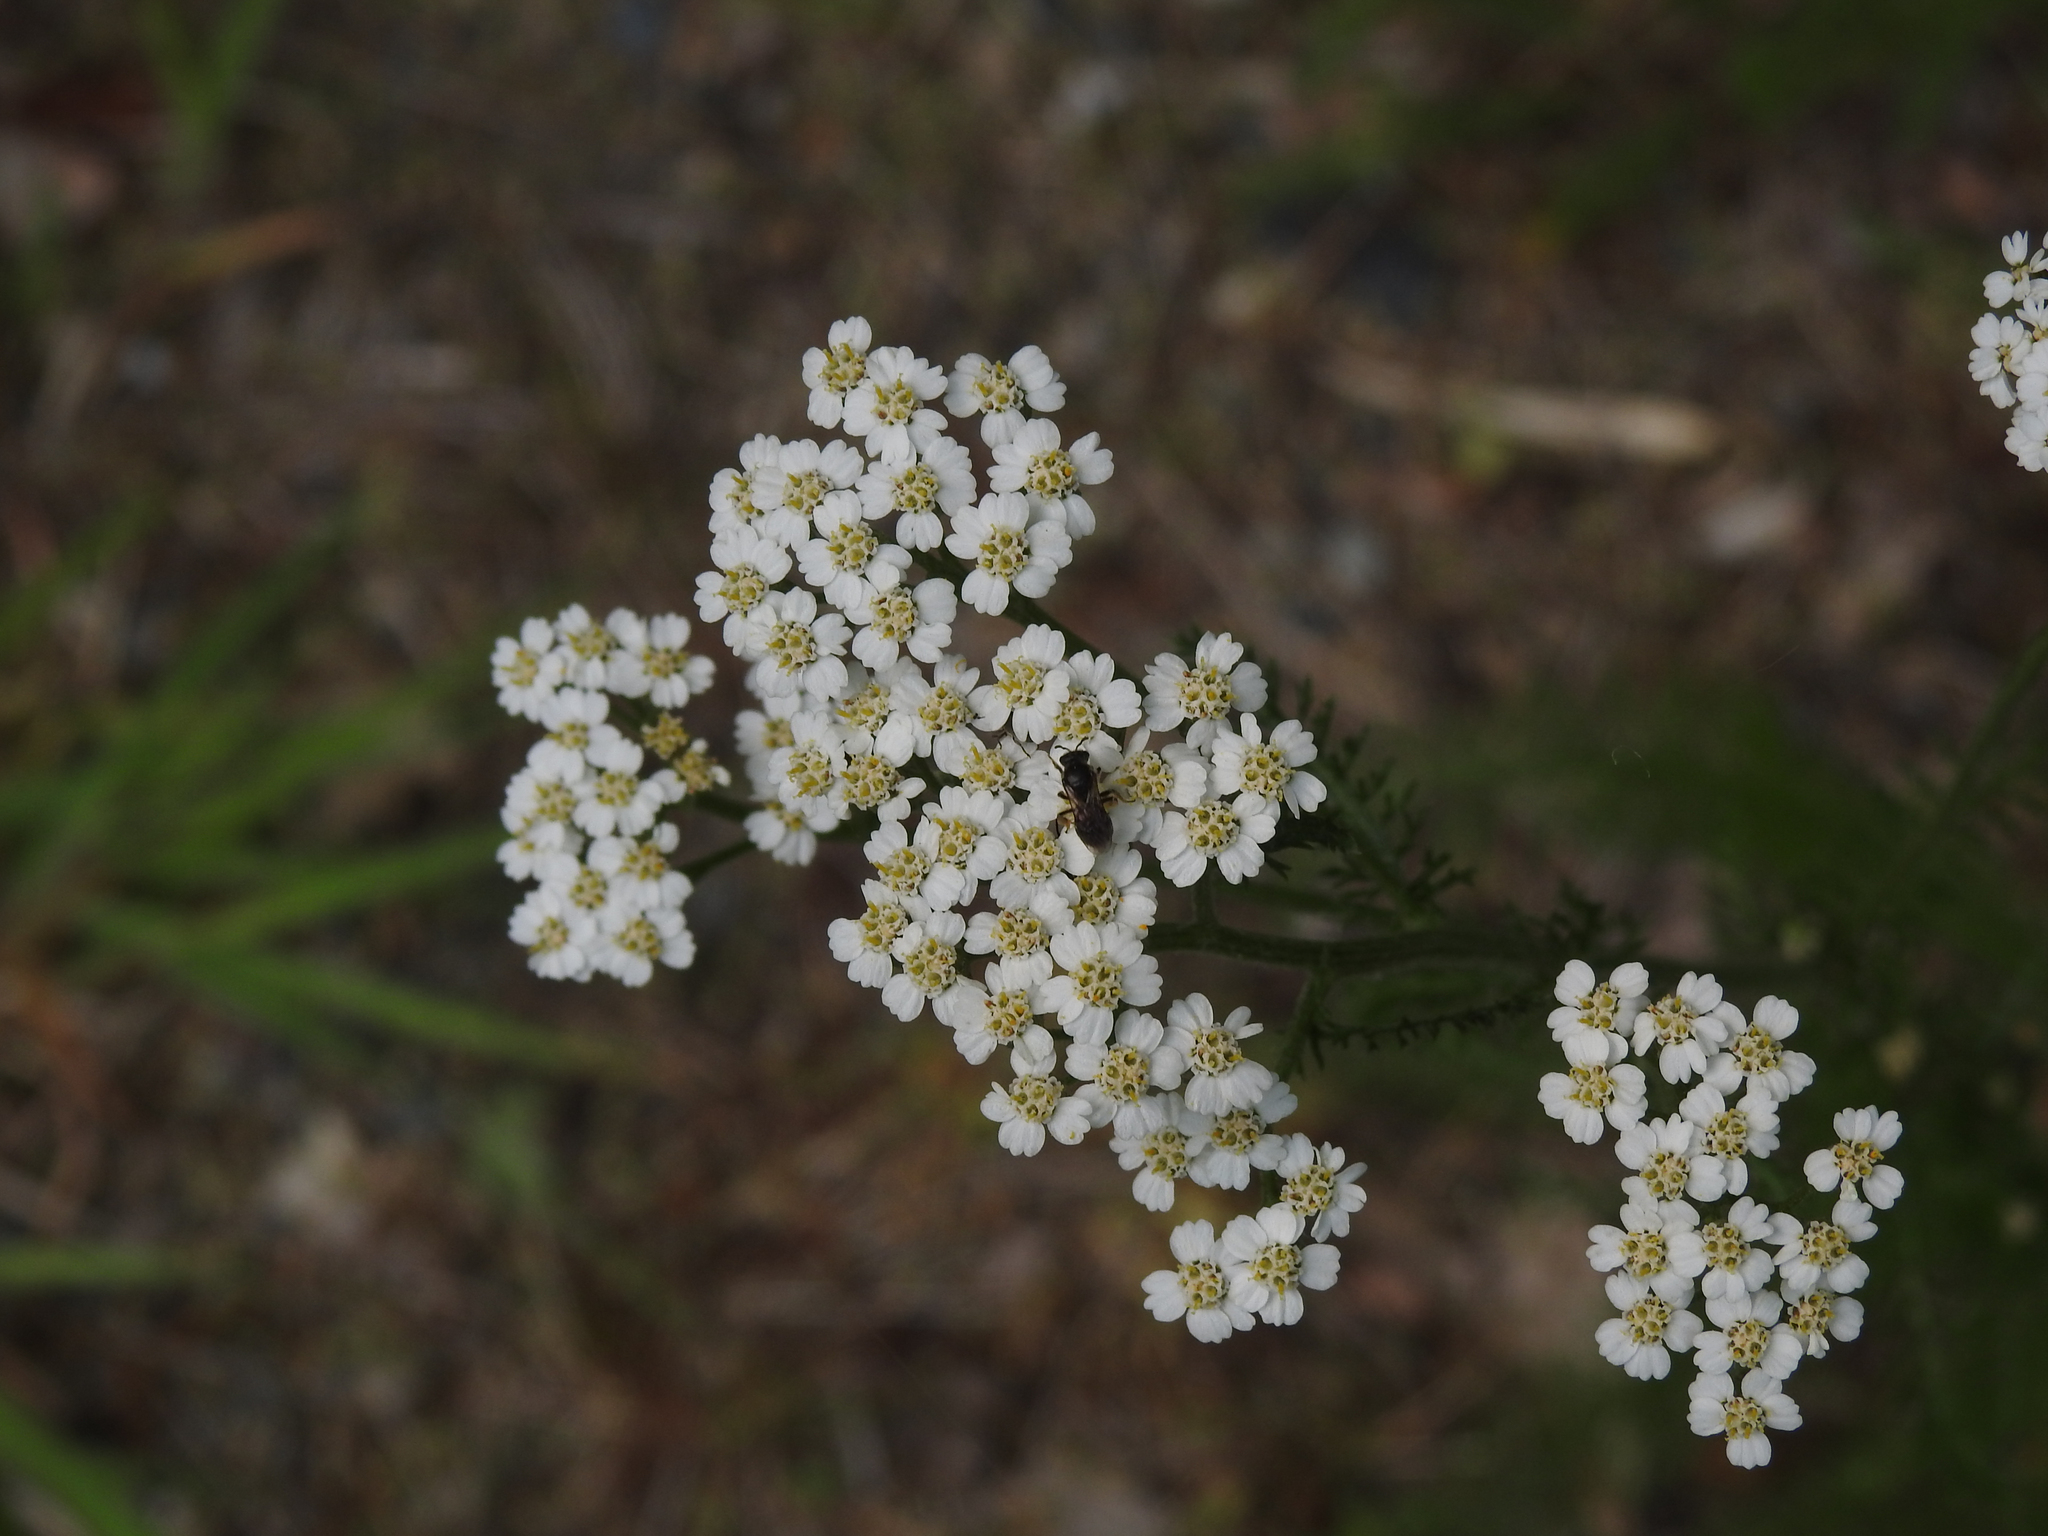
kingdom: Plantae
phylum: Tracheophyta
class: Magnoliopsida
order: Asterales
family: Asteraceae
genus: Achillea
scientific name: Achillea millefolium
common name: Yarrow
